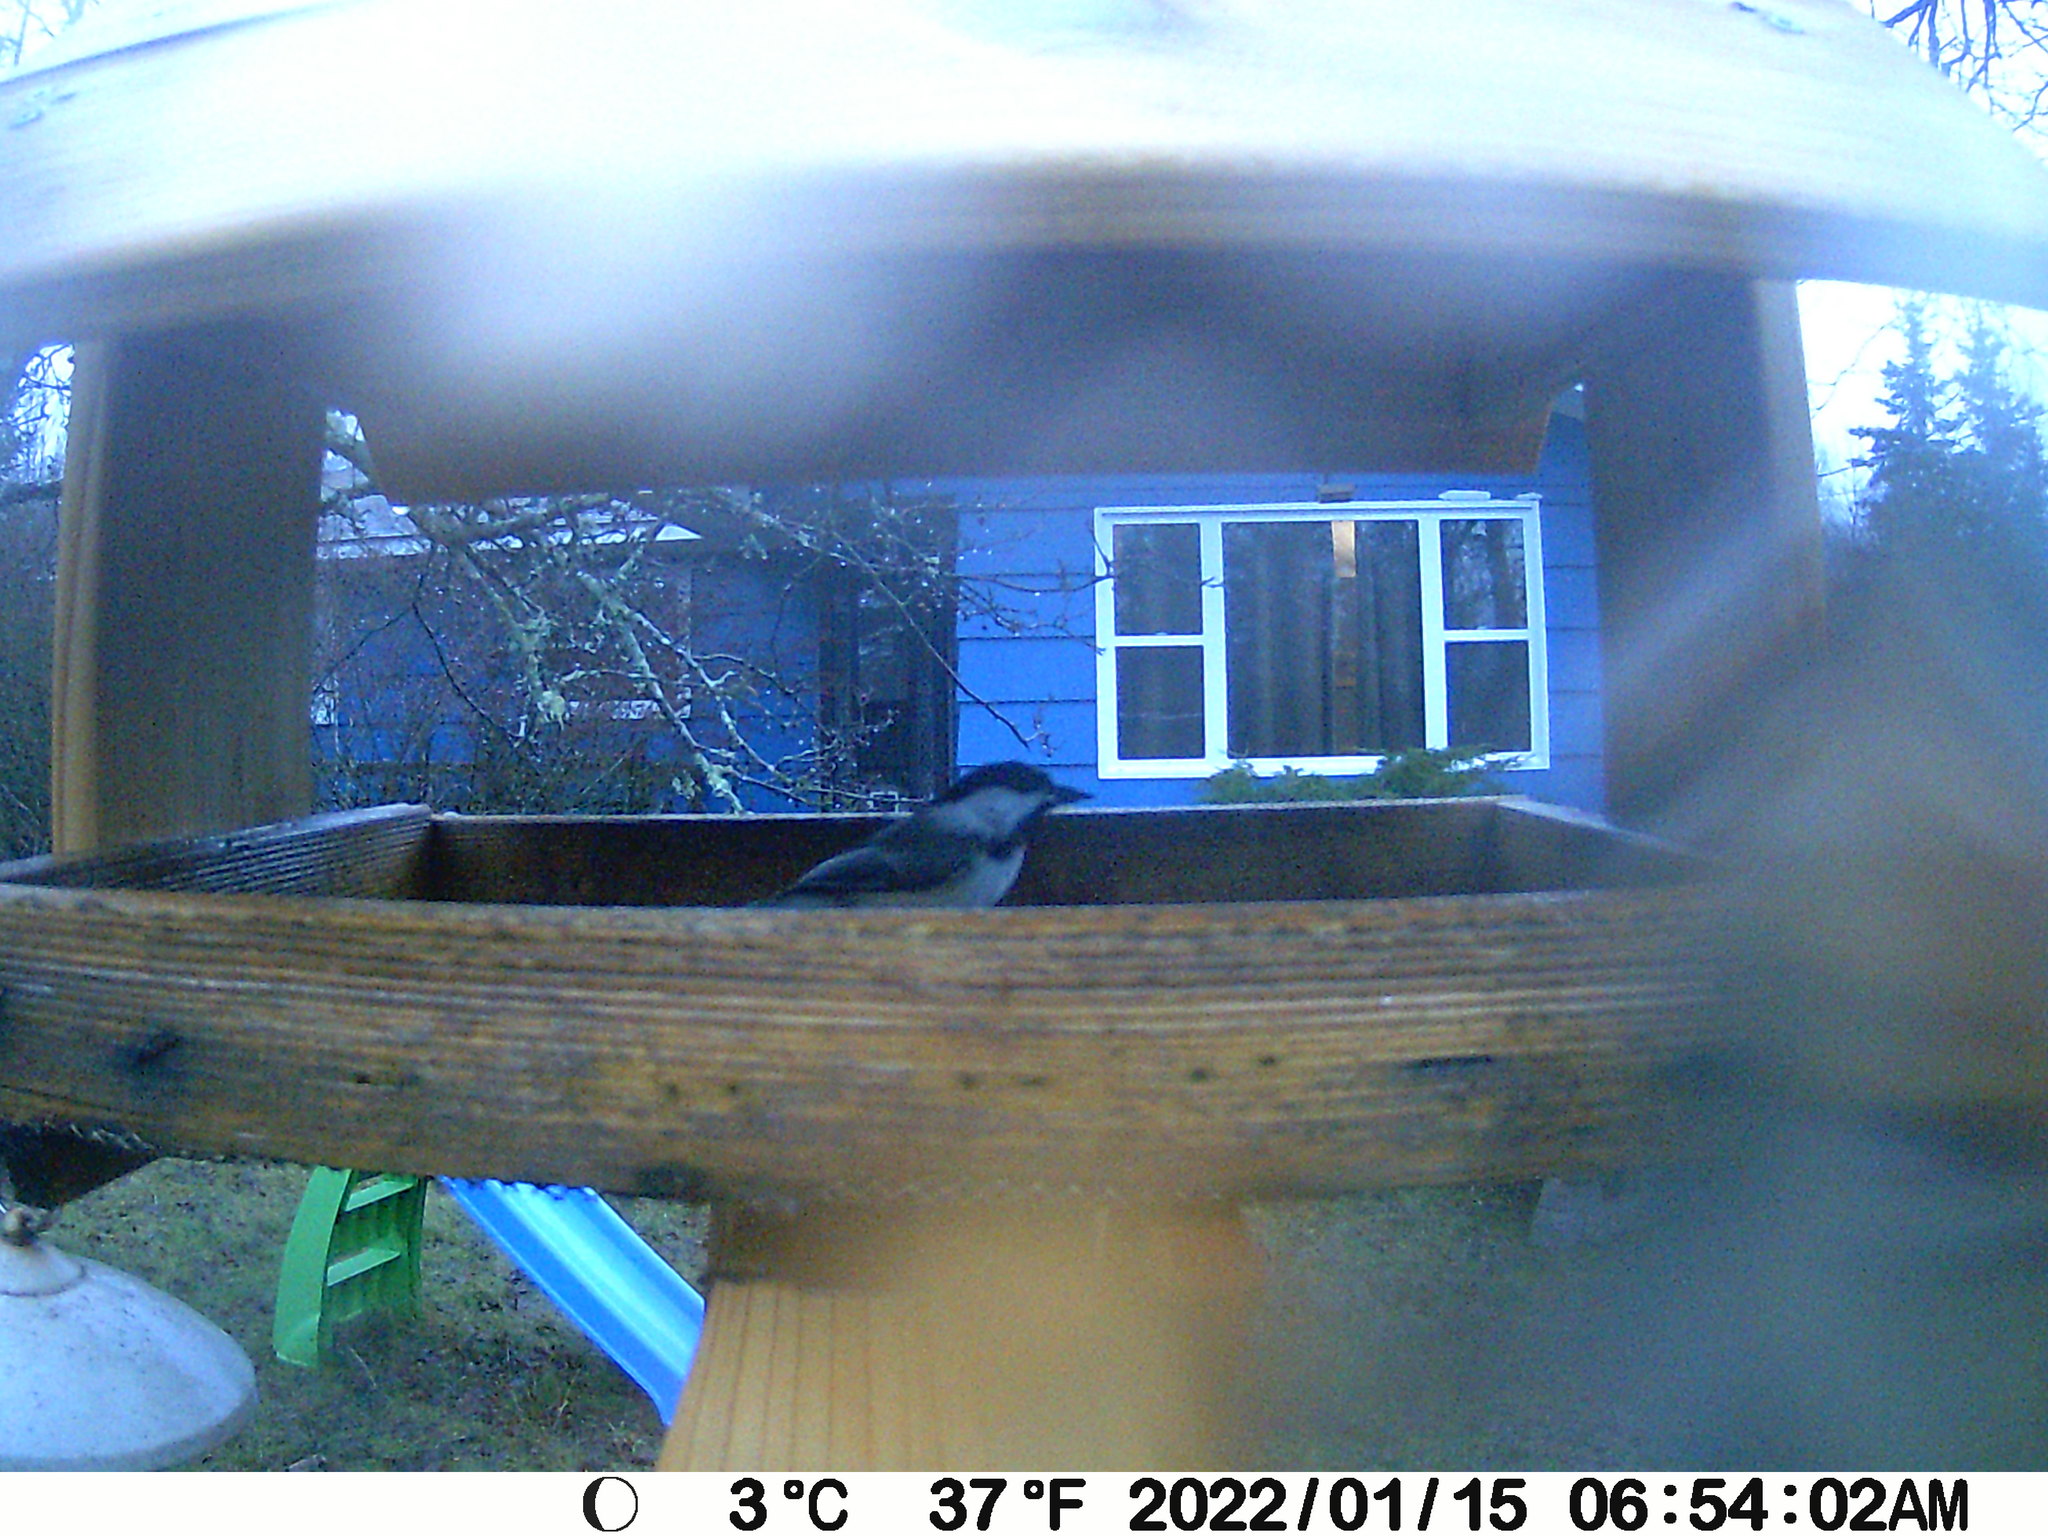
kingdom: Animalia
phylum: Chordata
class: Aves
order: Passeriformes
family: Paridae
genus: Poecile
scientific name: Poecile atricapillus
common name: Black-capped chickadee
